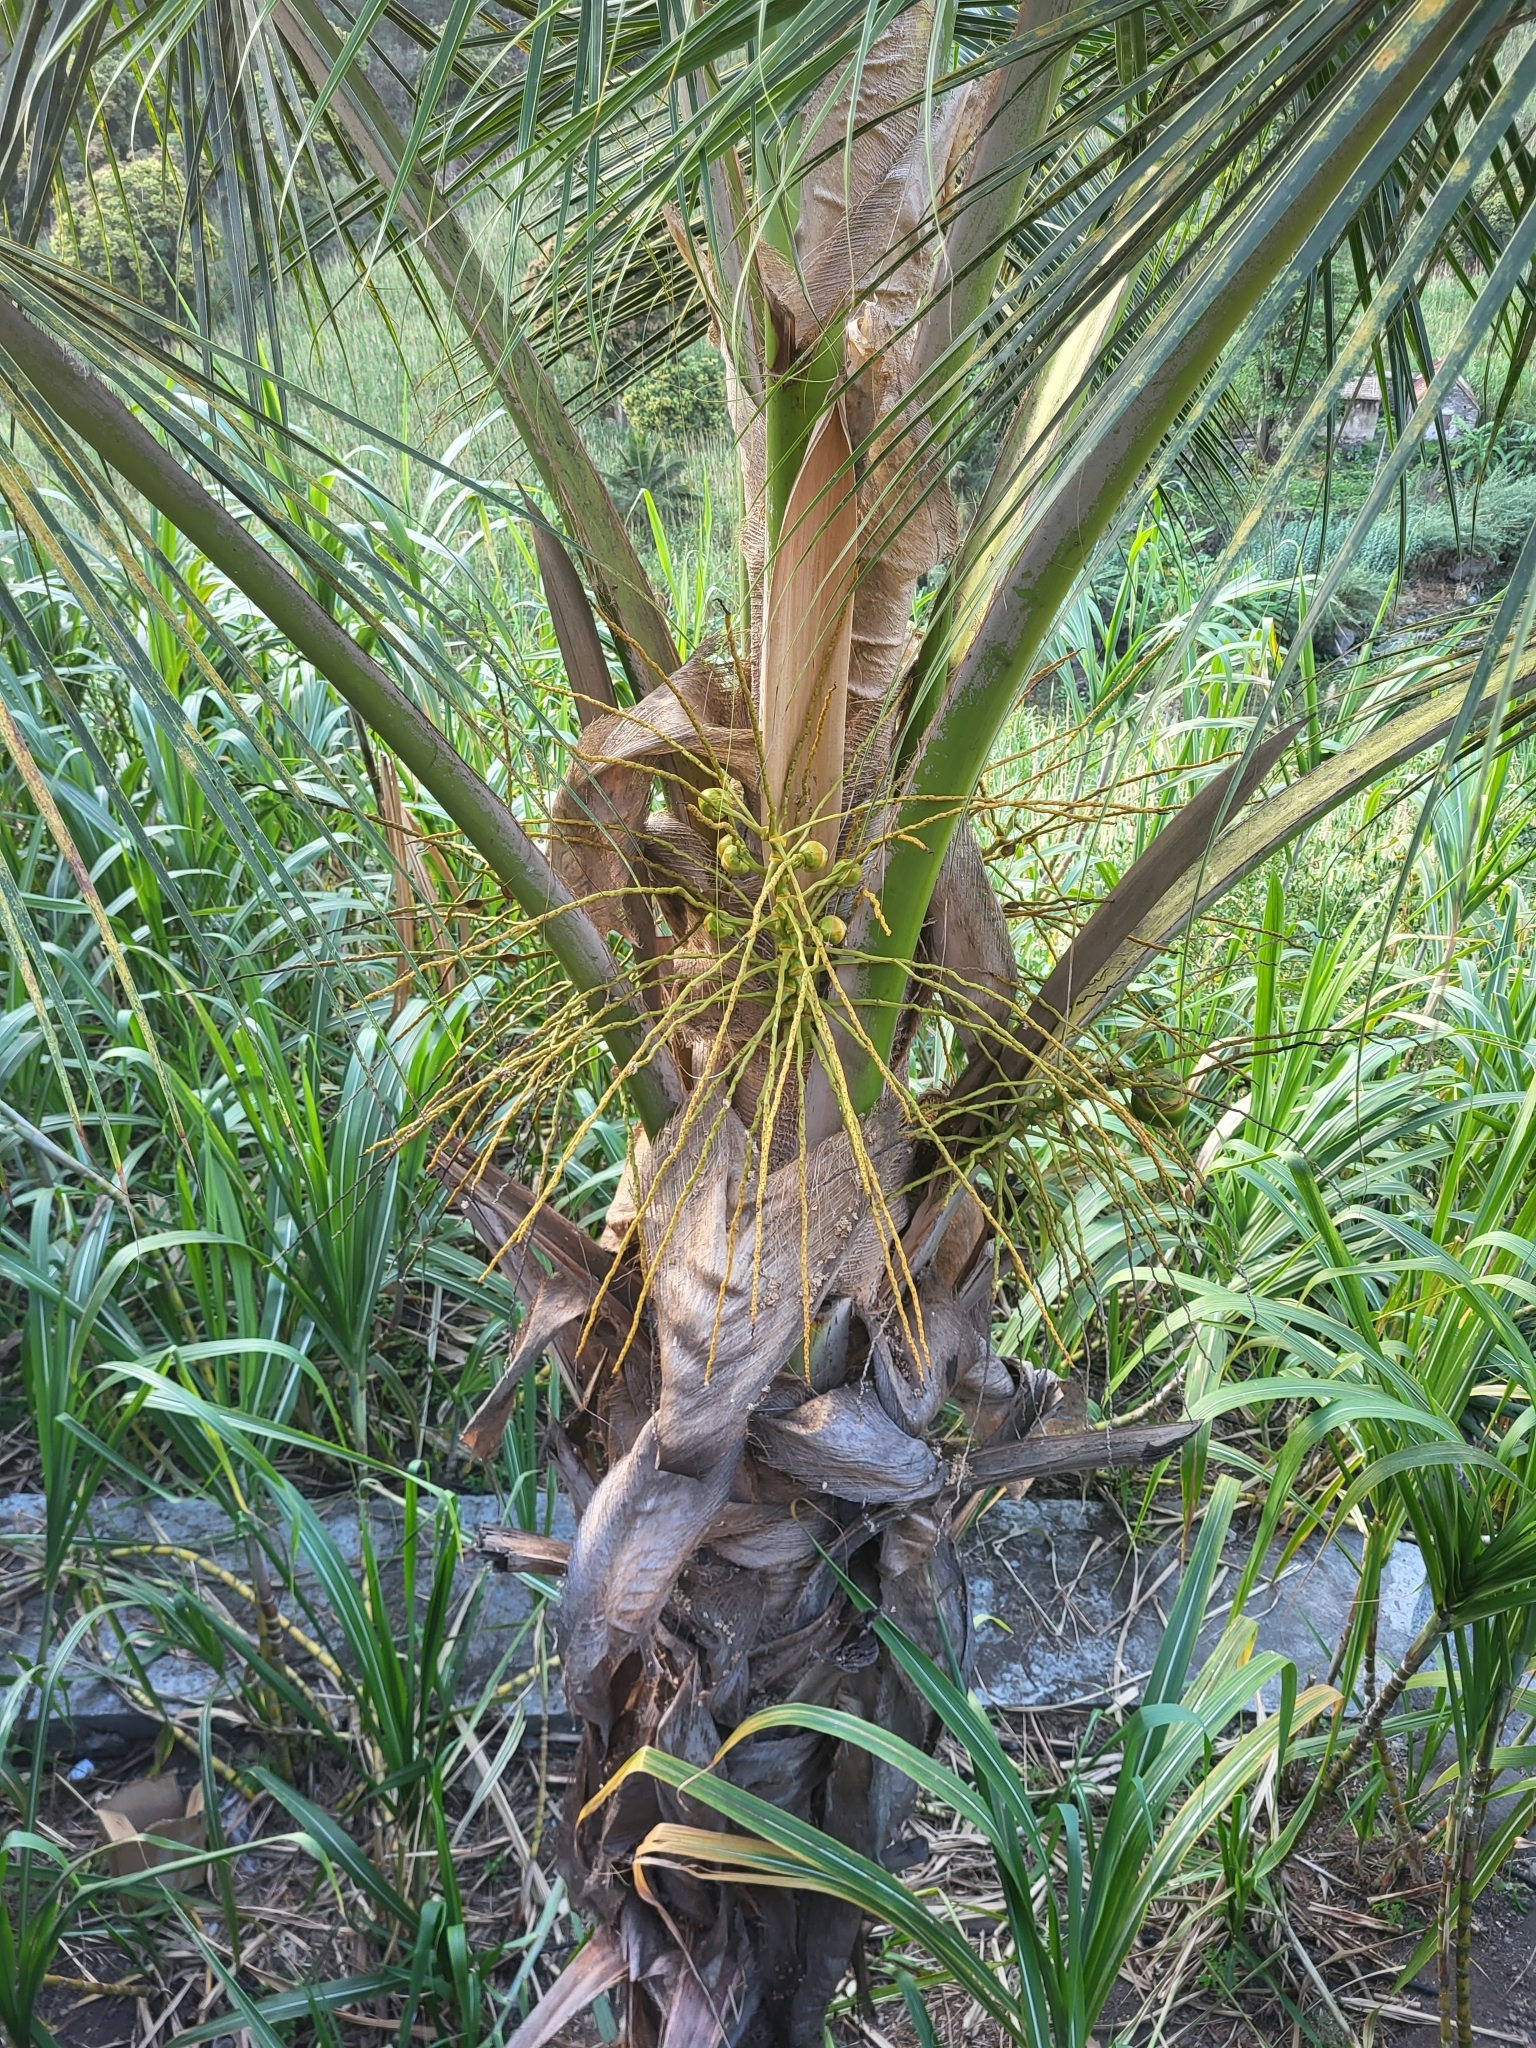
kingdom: Plantae
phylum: Tracheophyta
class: Liliopsida
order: Arecales
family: Arecaceae
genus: Cocos
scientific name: Cocos nucifera
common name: Coconut palm
